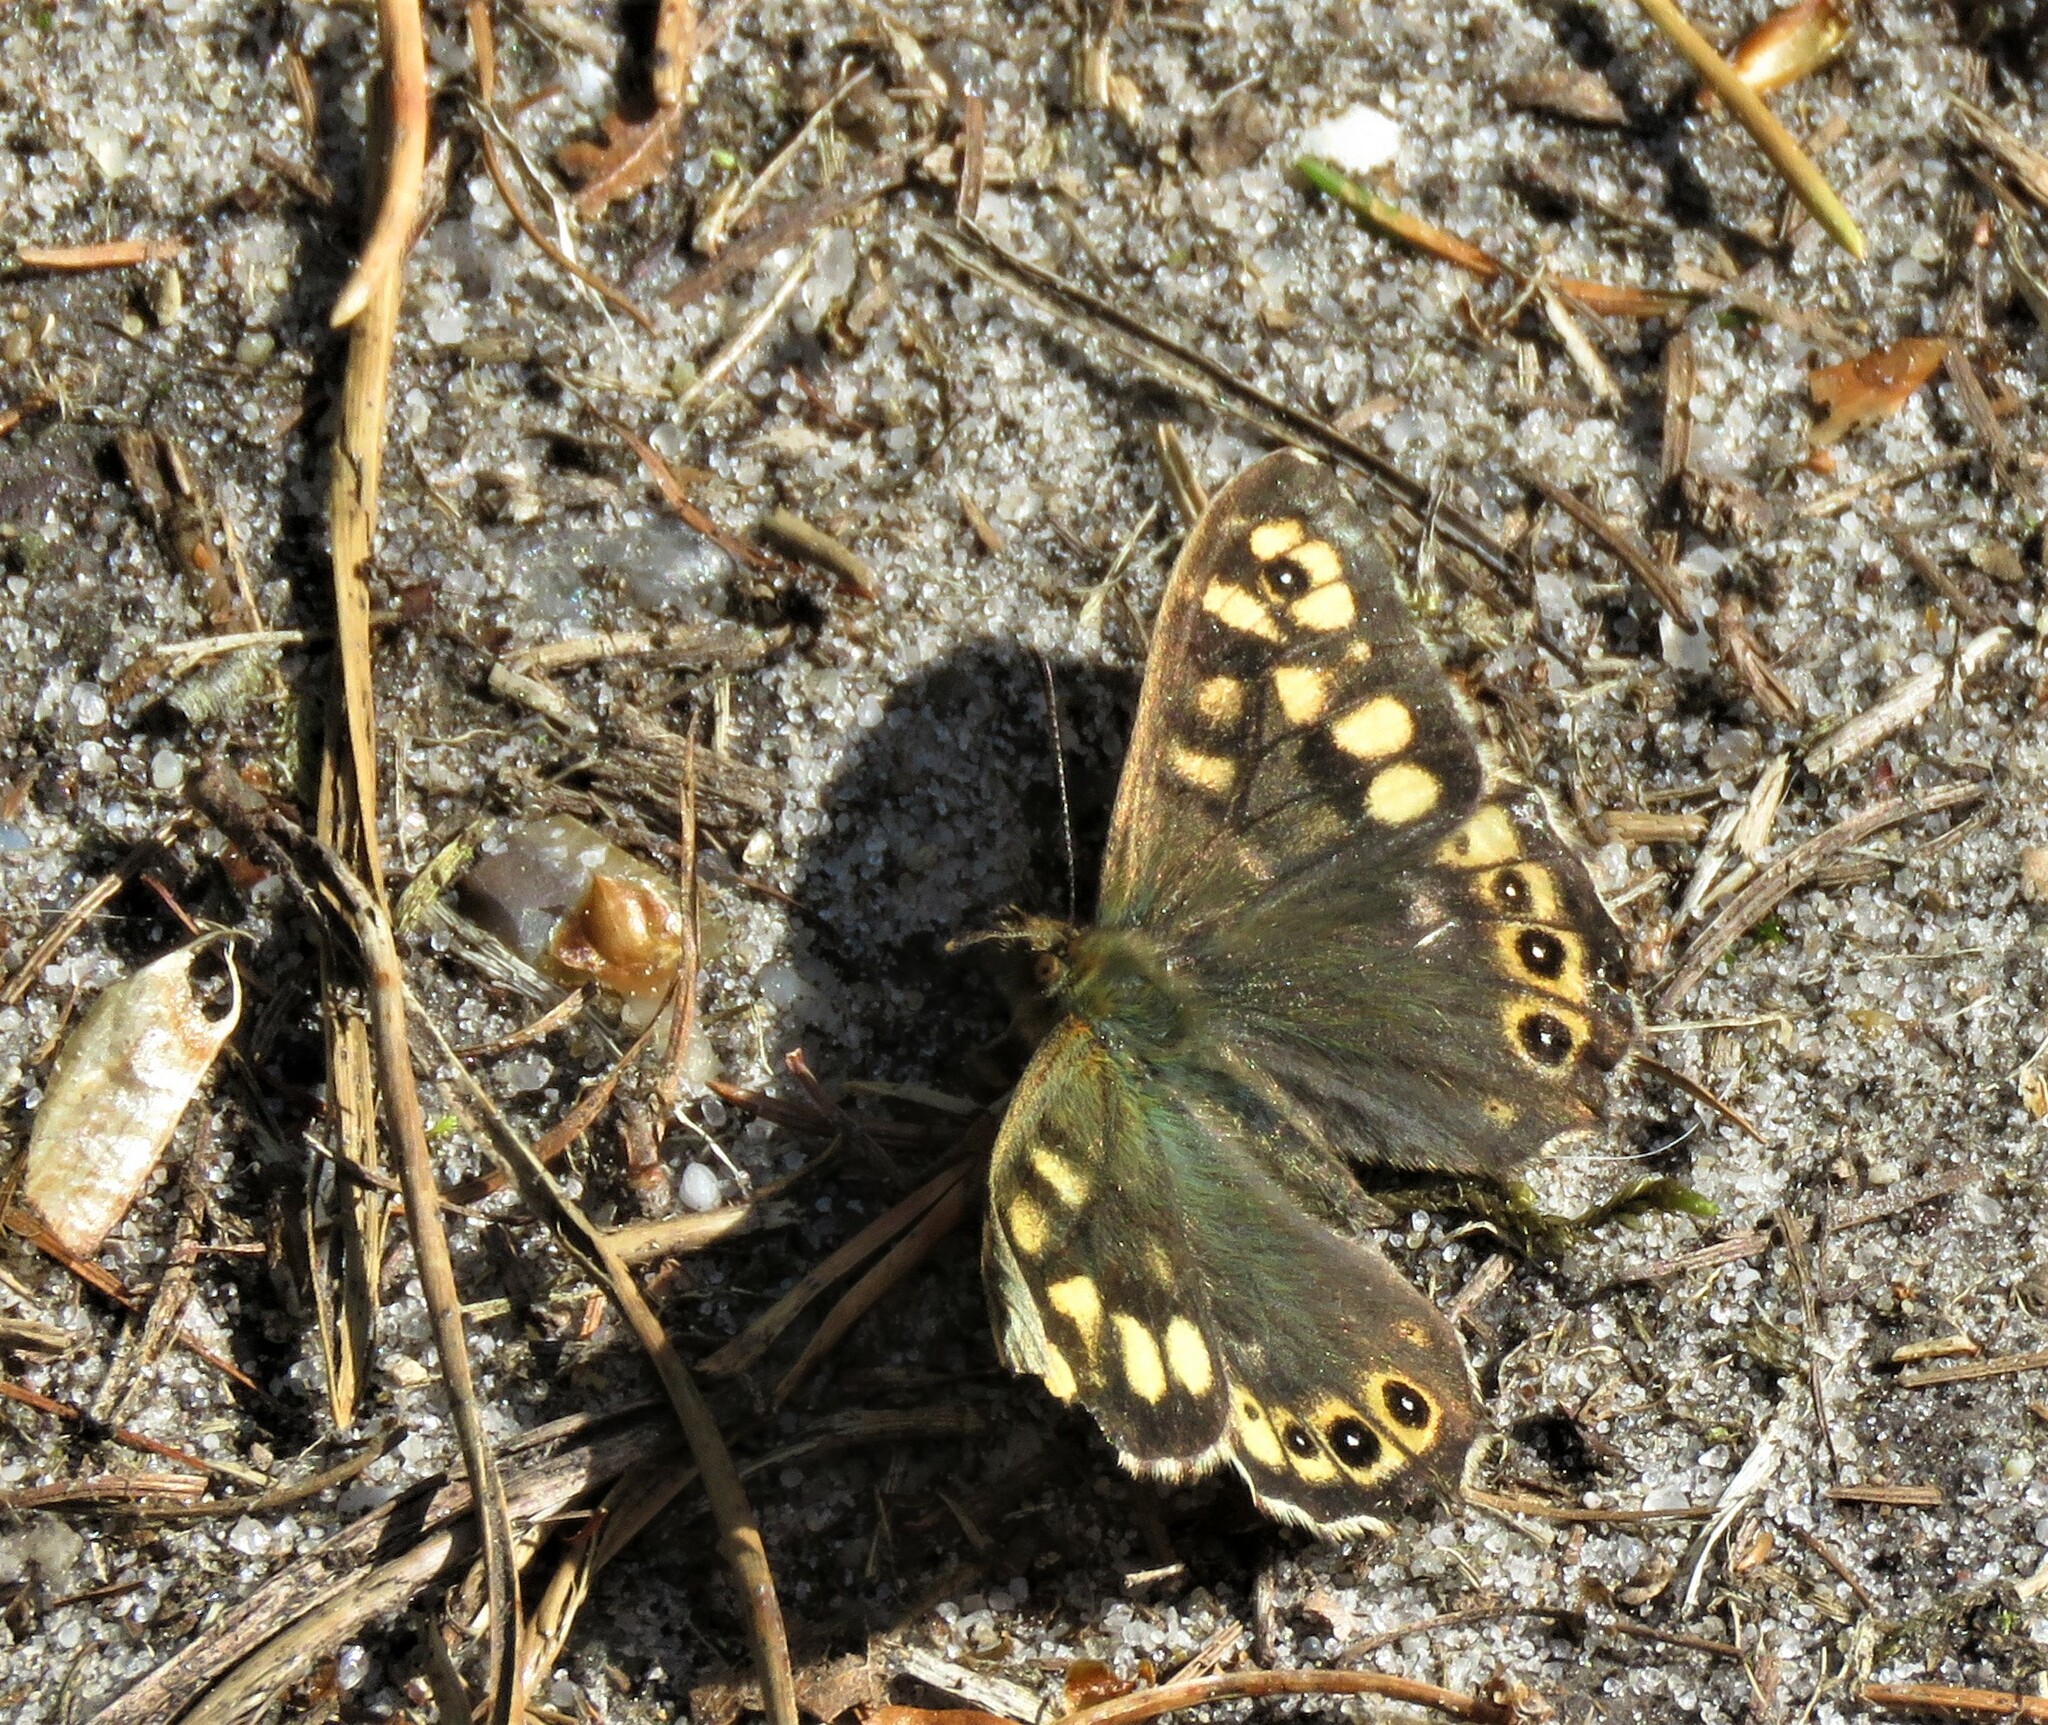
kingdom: Animalia
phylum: Arthropoda
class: Insecta
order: Lepidoptera
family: Nymphalidae
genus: Pararge
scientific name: Pararge aegeria
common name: Speckled wood
